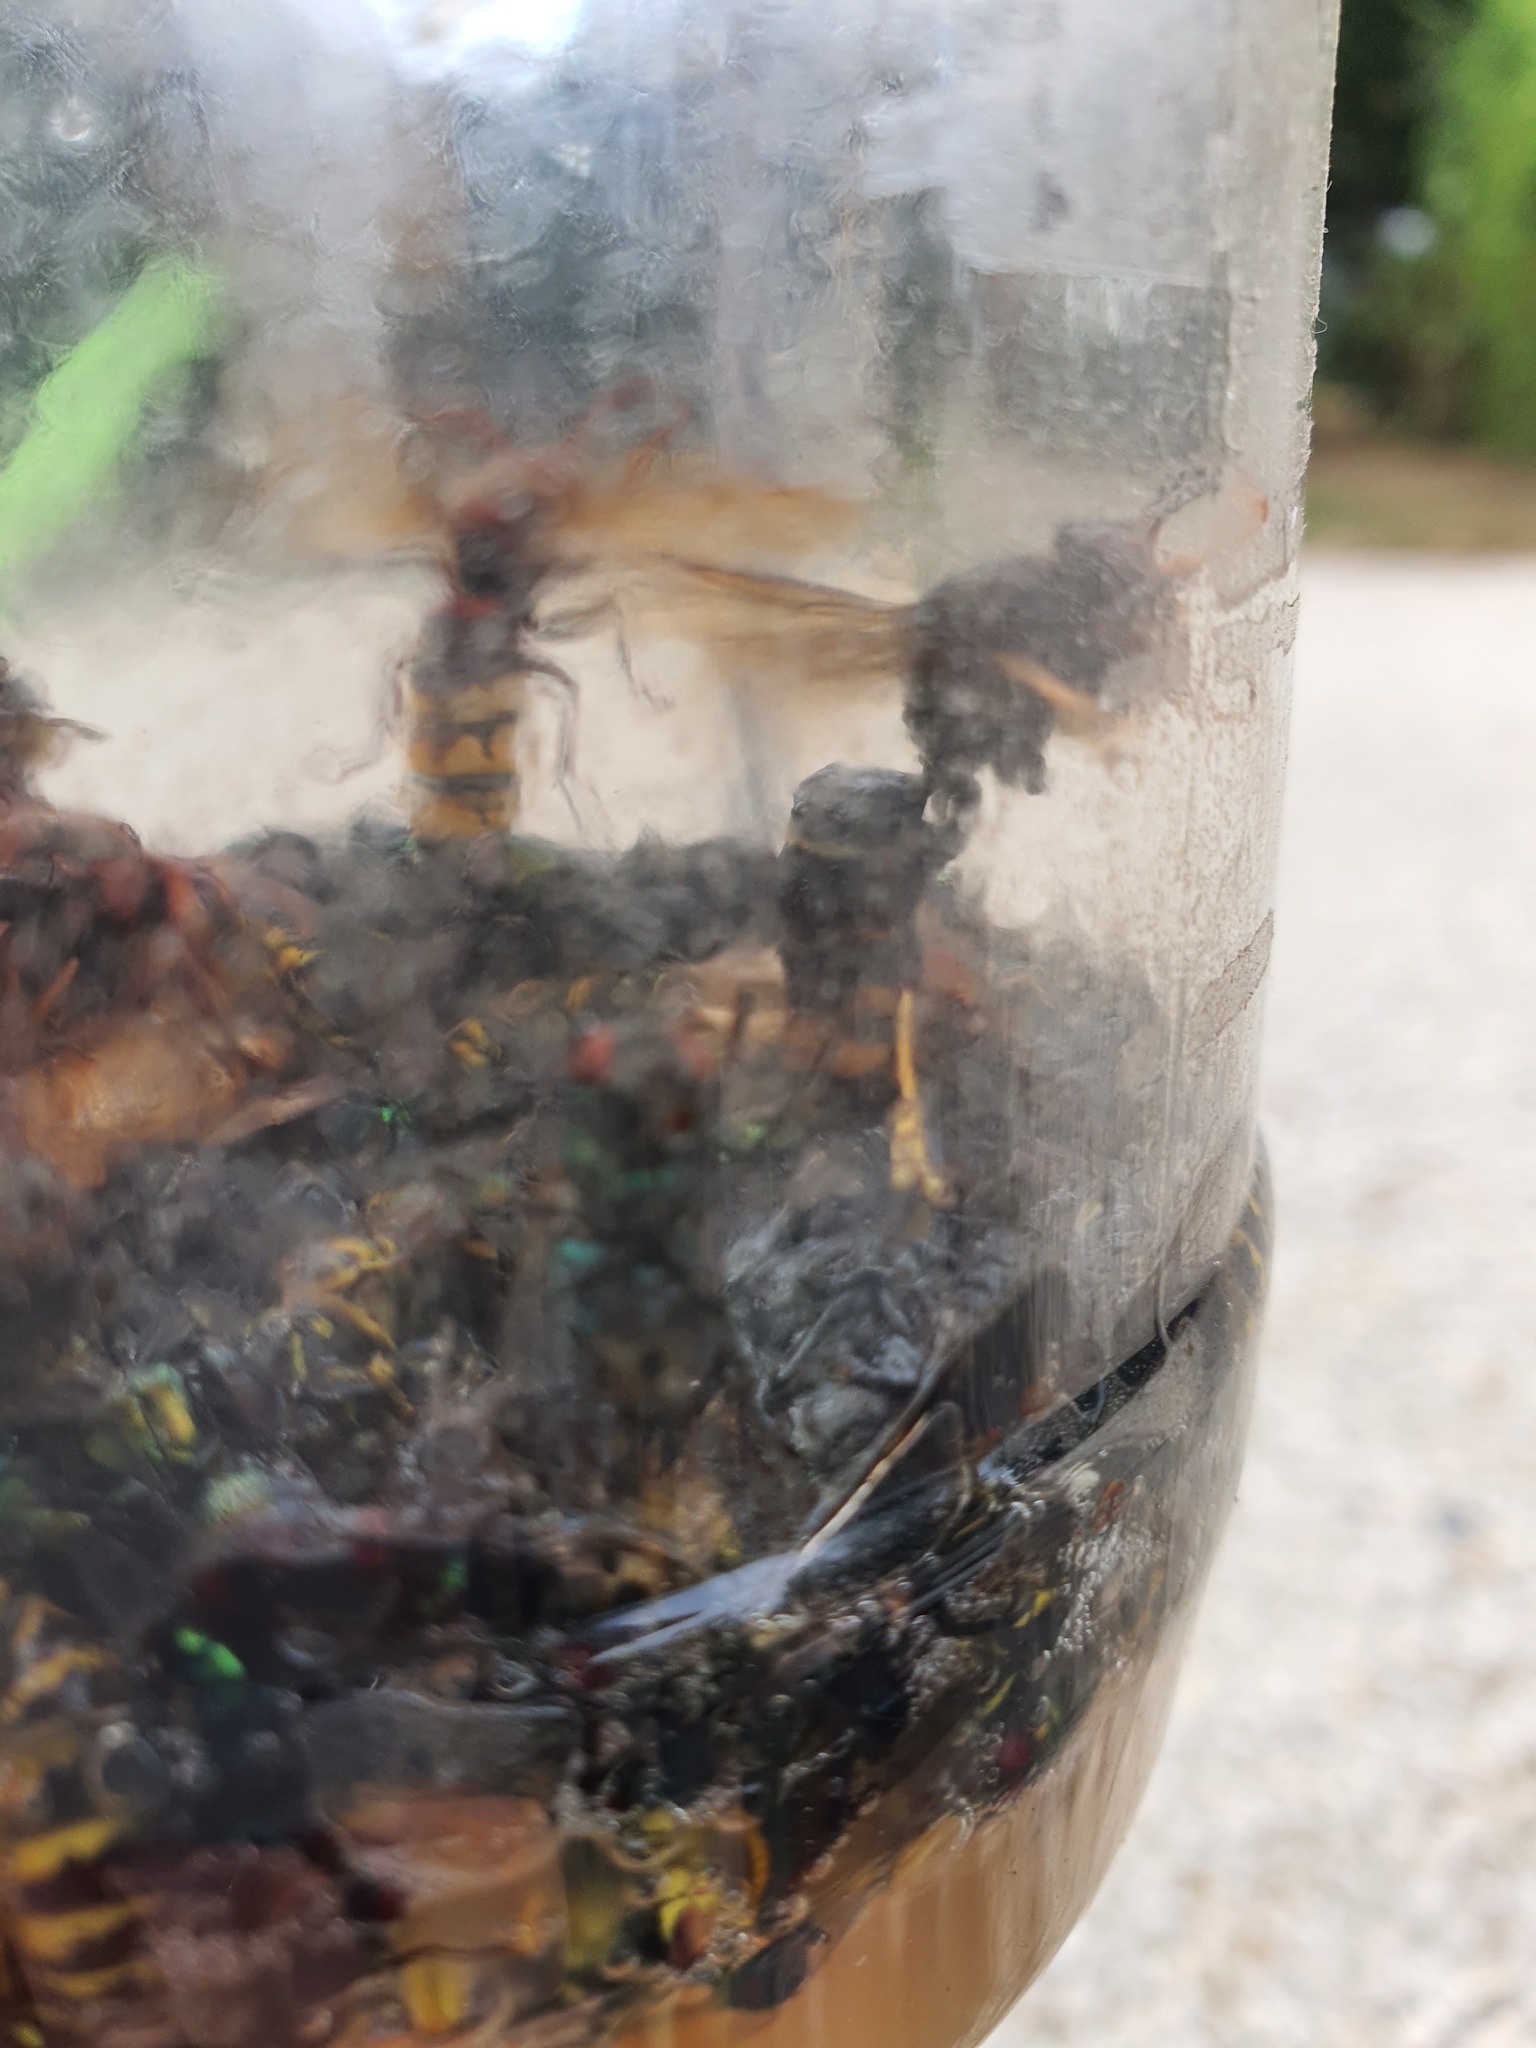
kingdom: Animalia
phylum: Arthropoda
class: Insecta
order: Hymenoptera
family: Vespidae
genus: Vespa
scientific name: Vespa velutina
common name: Asian hornet
